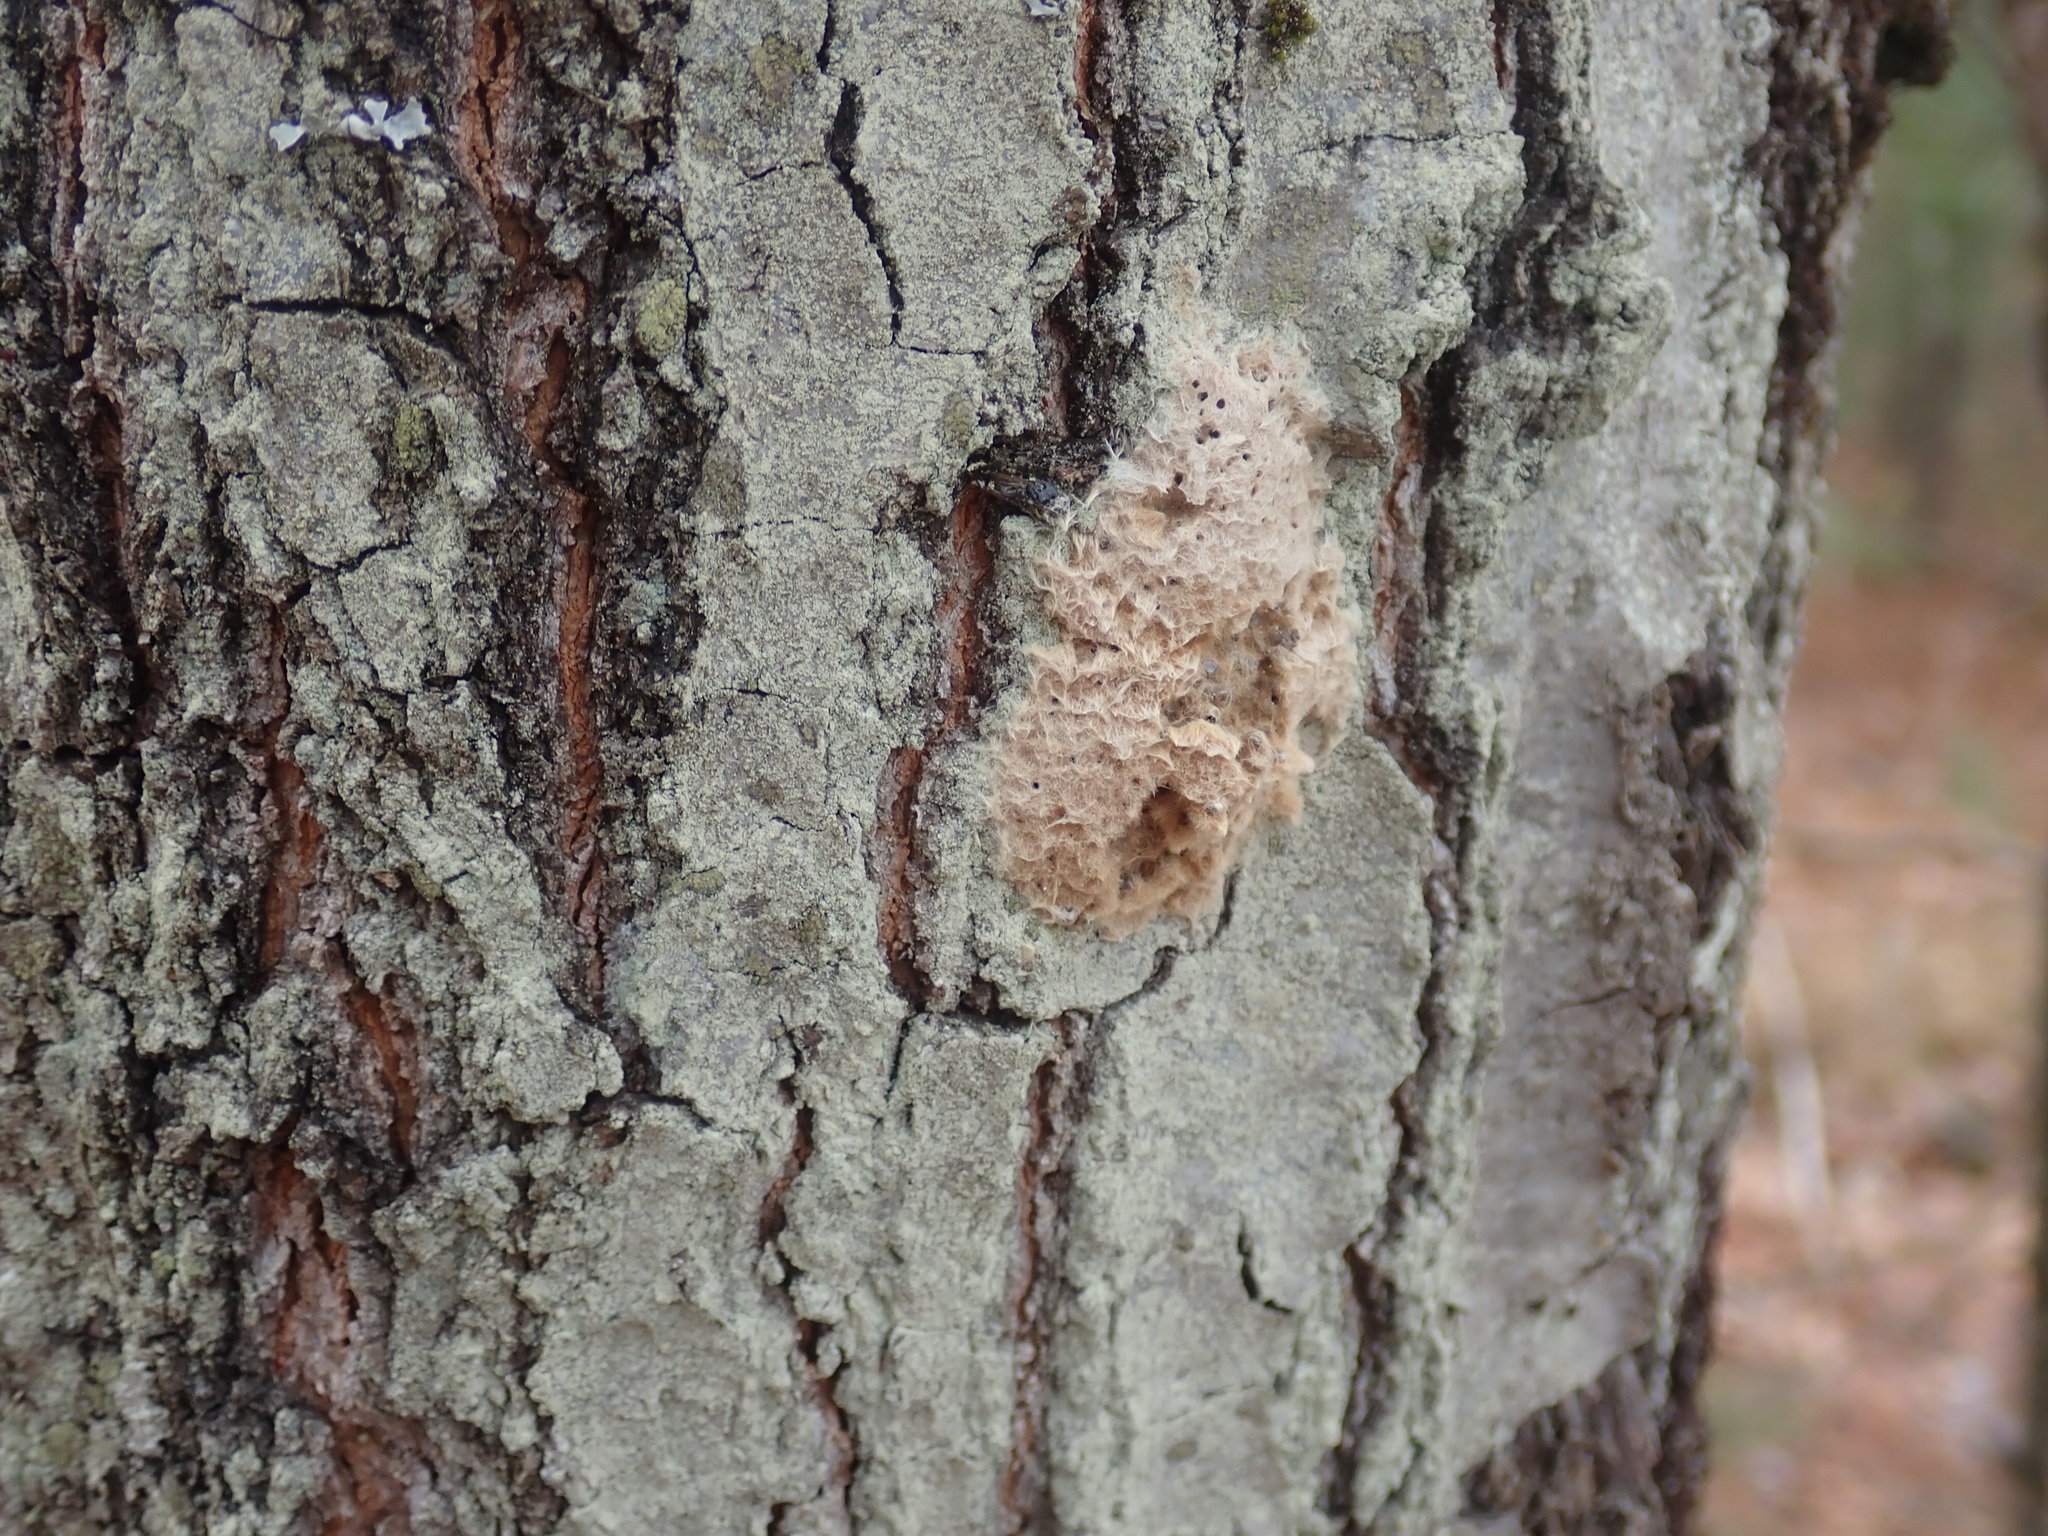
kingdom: Animalia
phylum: Arthropoda
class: Insecta
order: Lepidoptera
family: Erebidae
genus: Lymantria
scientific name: Lymantria dispar
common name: Gypsy moth
